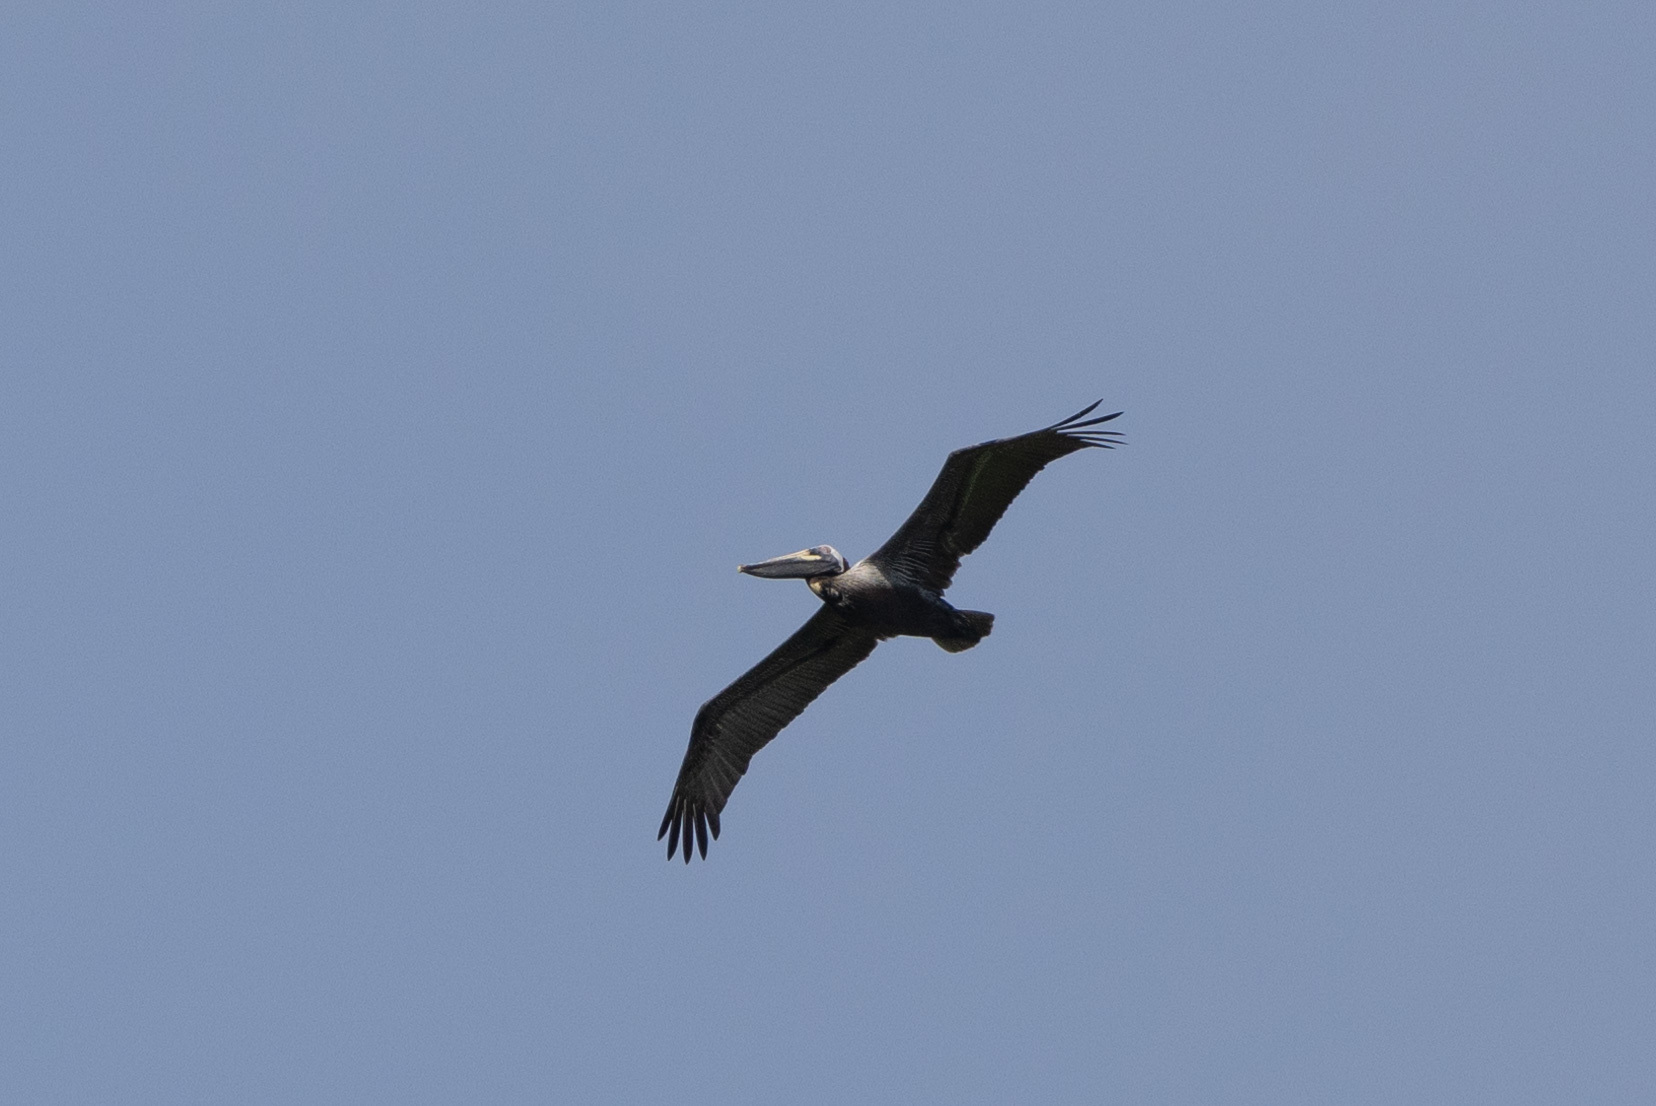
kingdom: Animalia
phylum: Chordata
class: Aves
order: Pelecaniformes
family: Pelecanidae
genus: Pelecanus
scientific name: Pelecanus occidentalis
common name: Brown pelican
